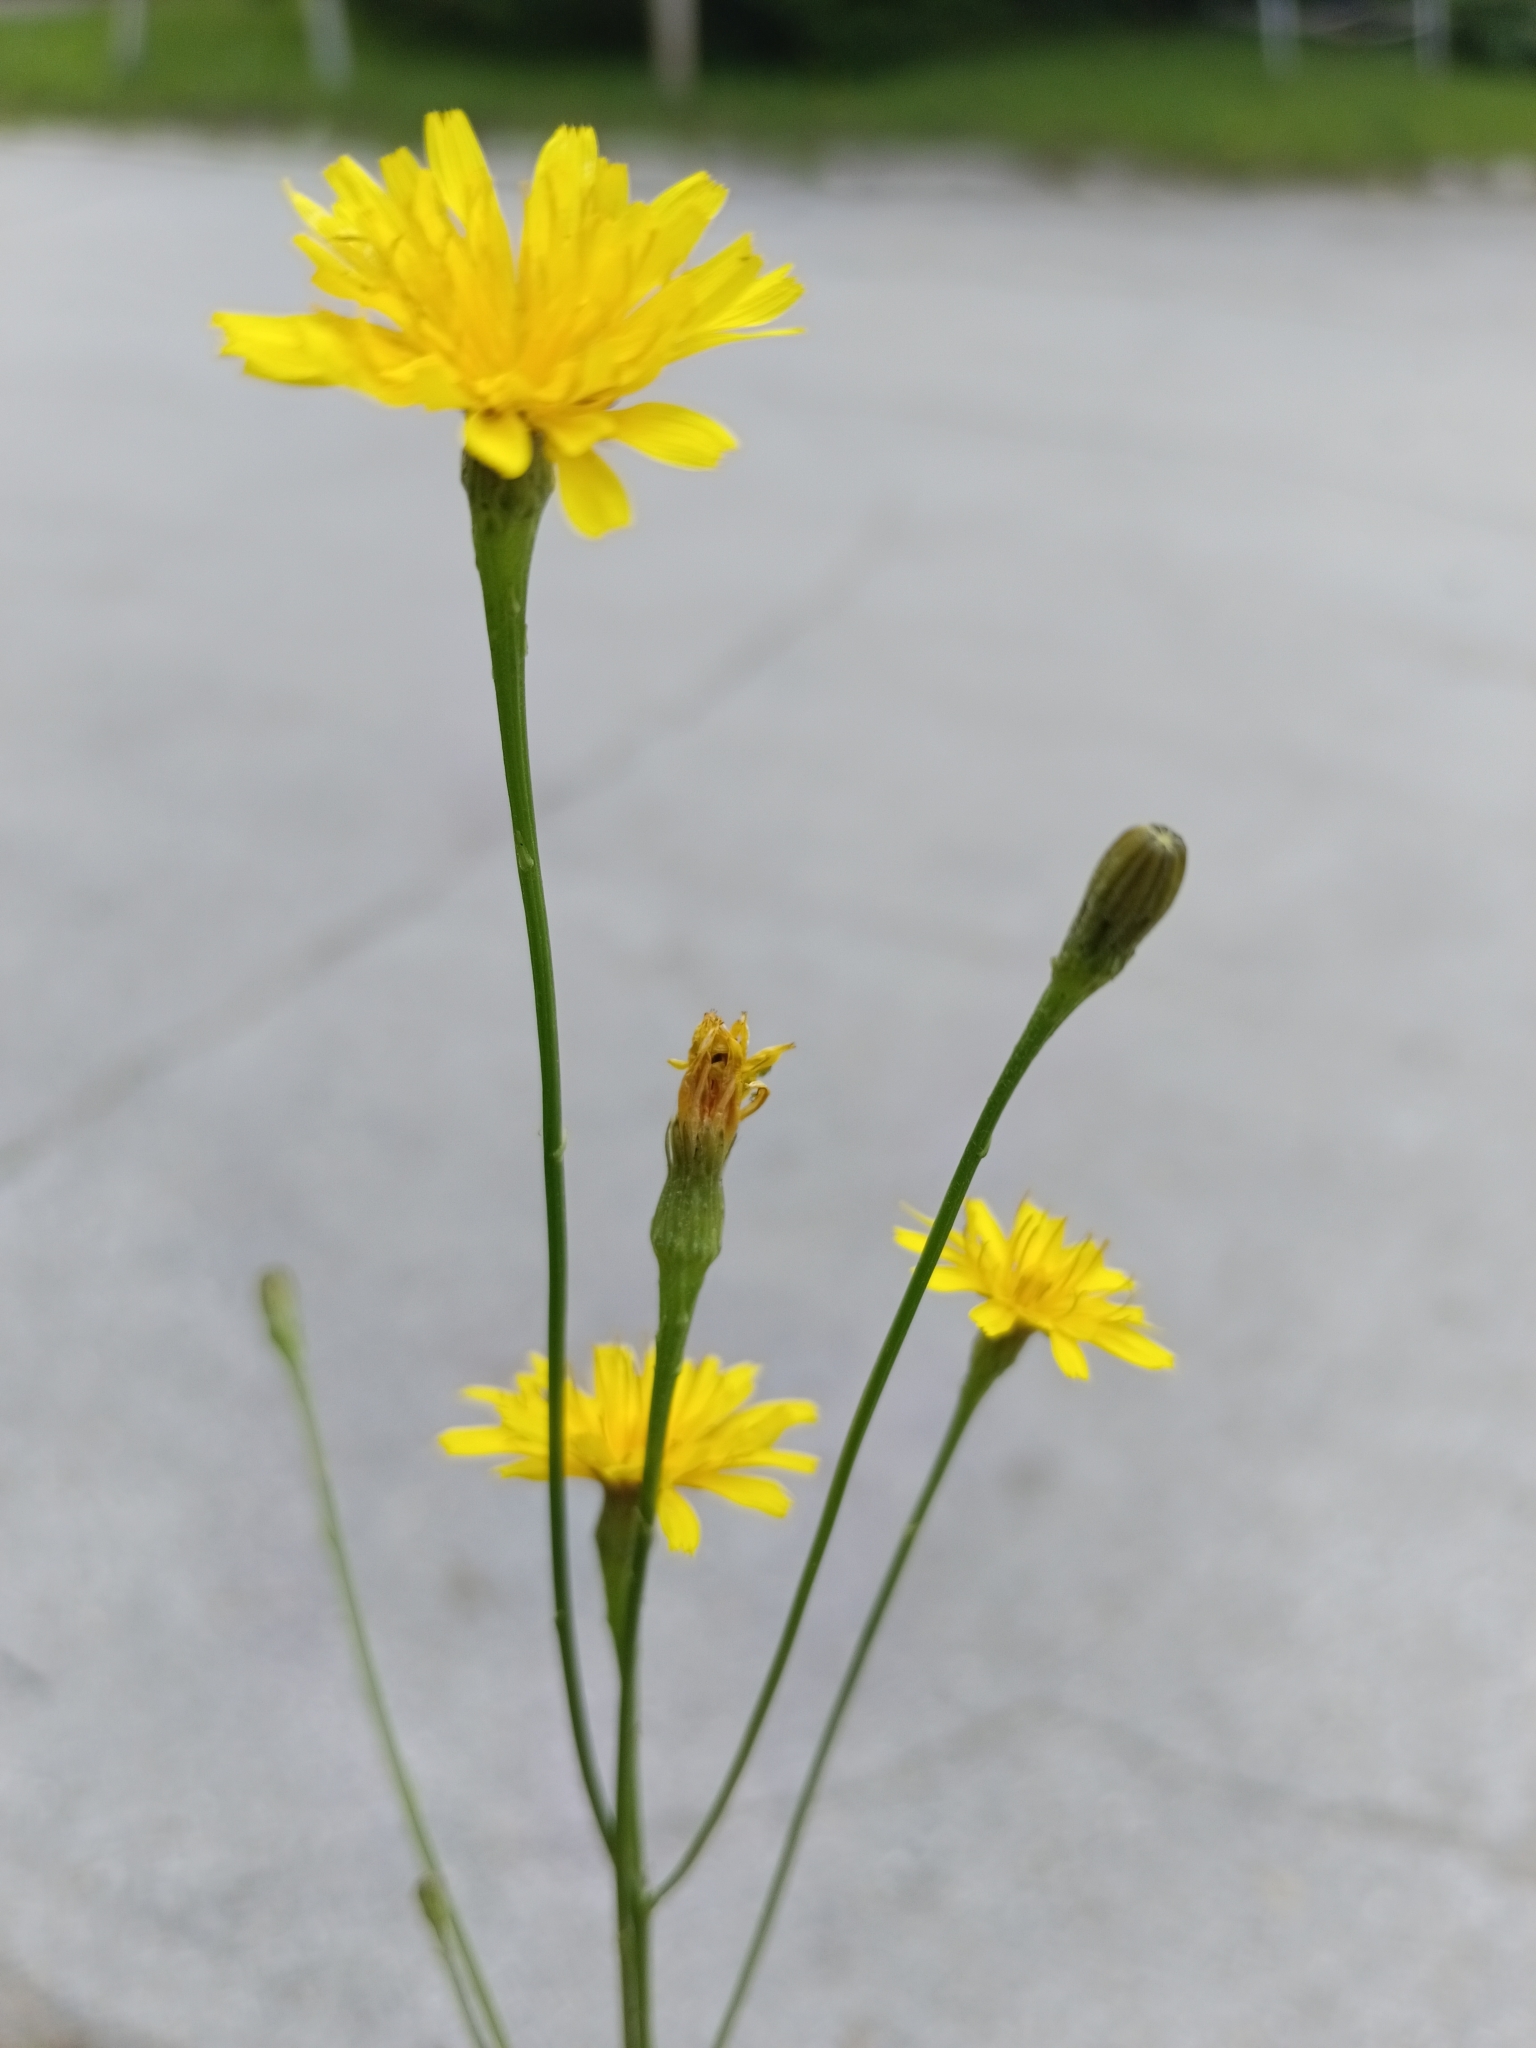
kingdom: Plantae
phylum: Tracheophyta
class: Magnoliopsida
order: Asterales
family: Asteraceae
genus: Scorzoneroides
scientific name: Scorzoneroides autumnalis
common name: Autumn hawkbit
